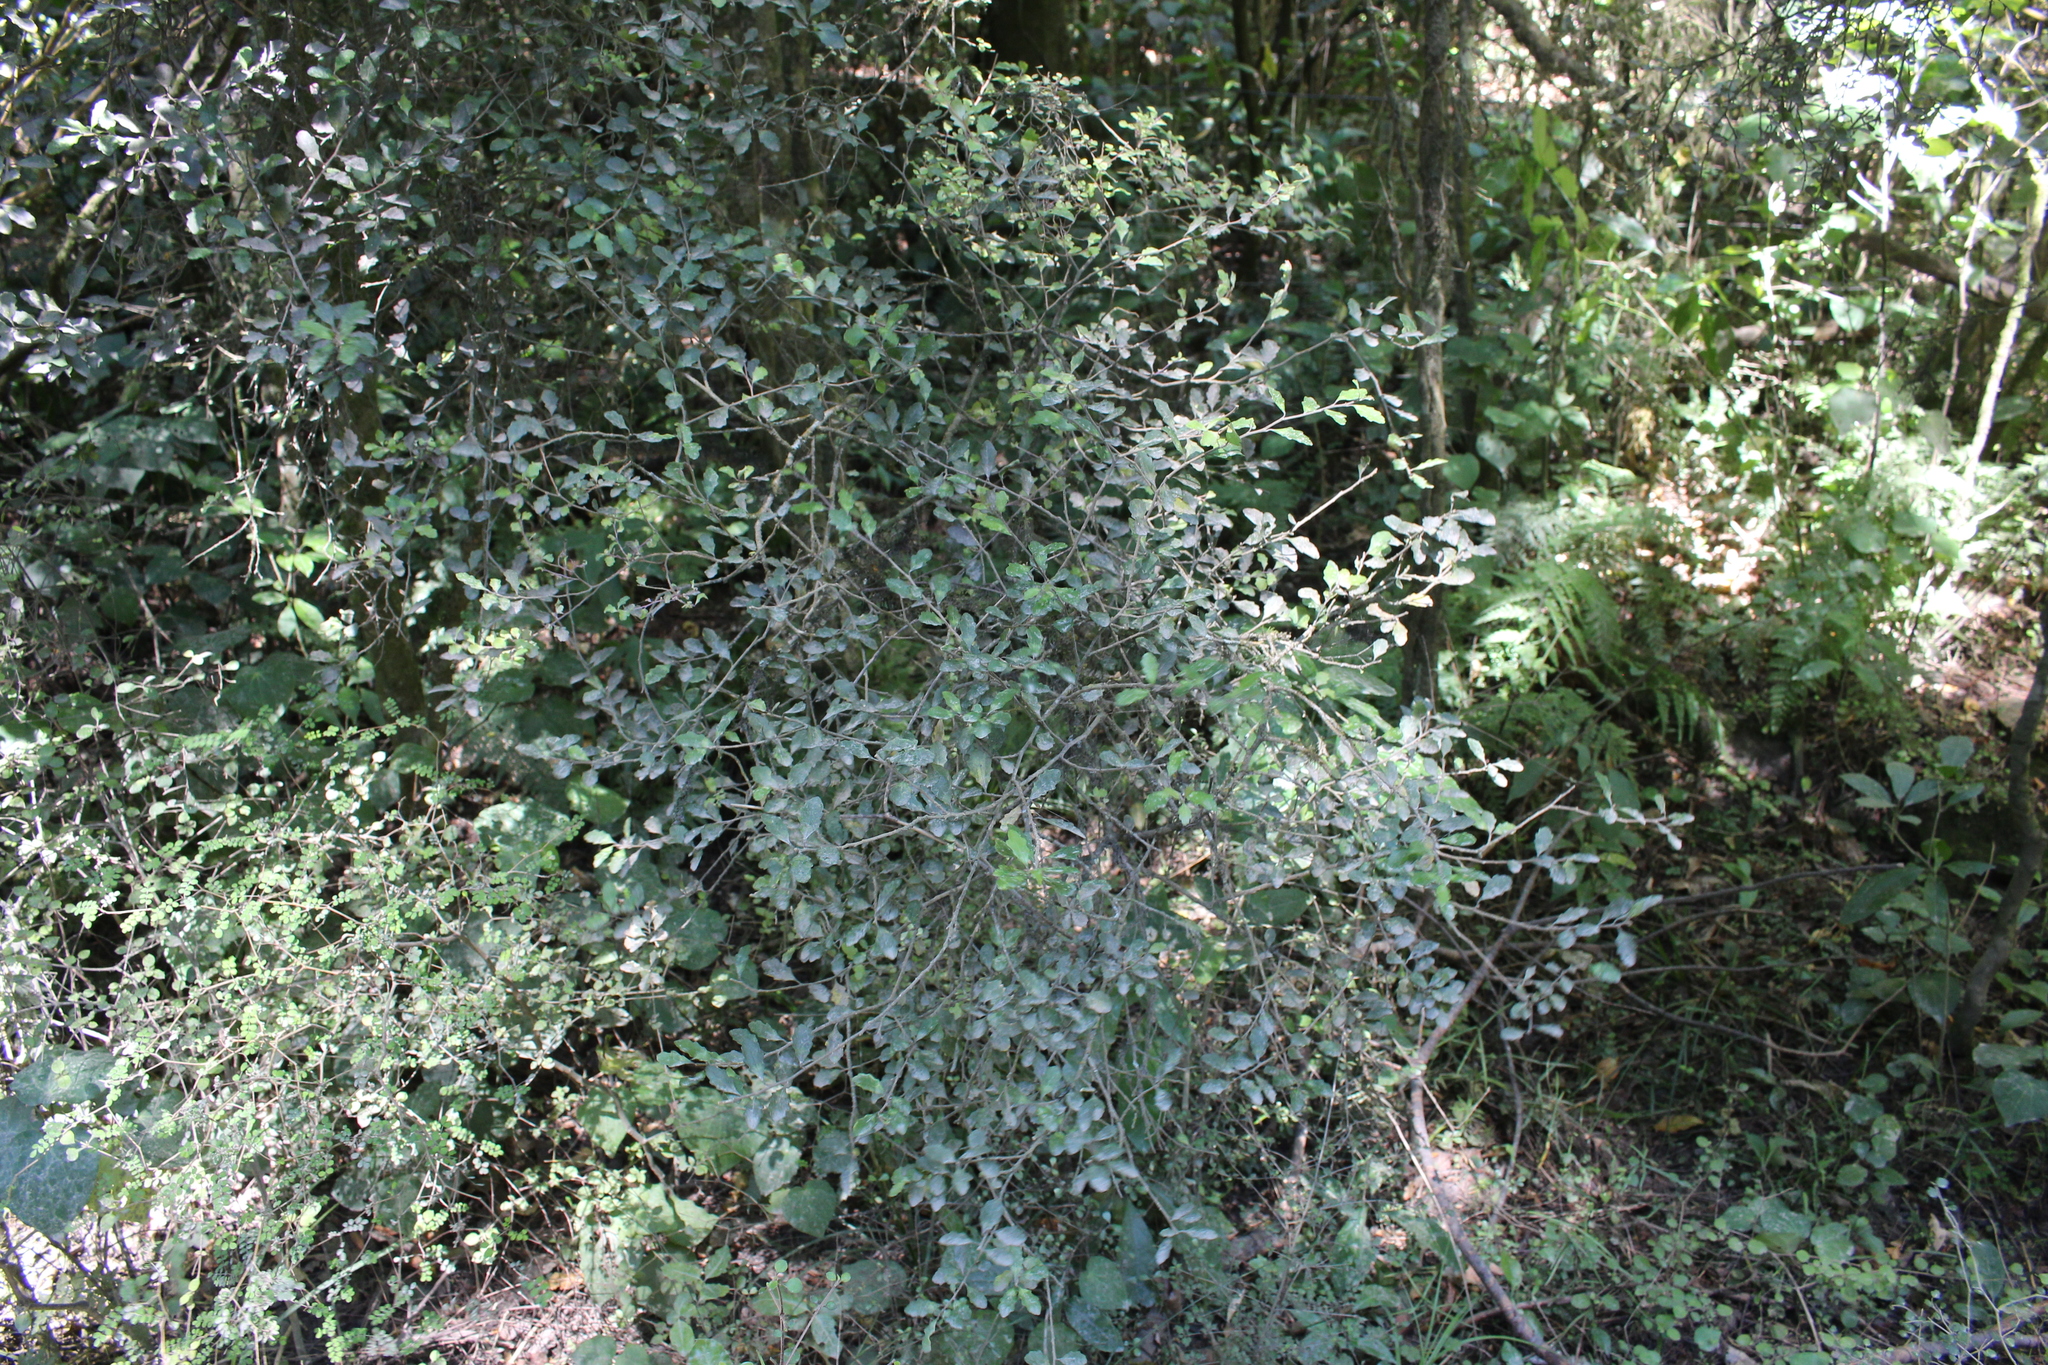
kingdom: Plantae
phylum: Tracheophyta
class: Magnoliopsida
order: Malpighiales
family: Violaceae
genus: Melicytus
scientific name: Melicytus
